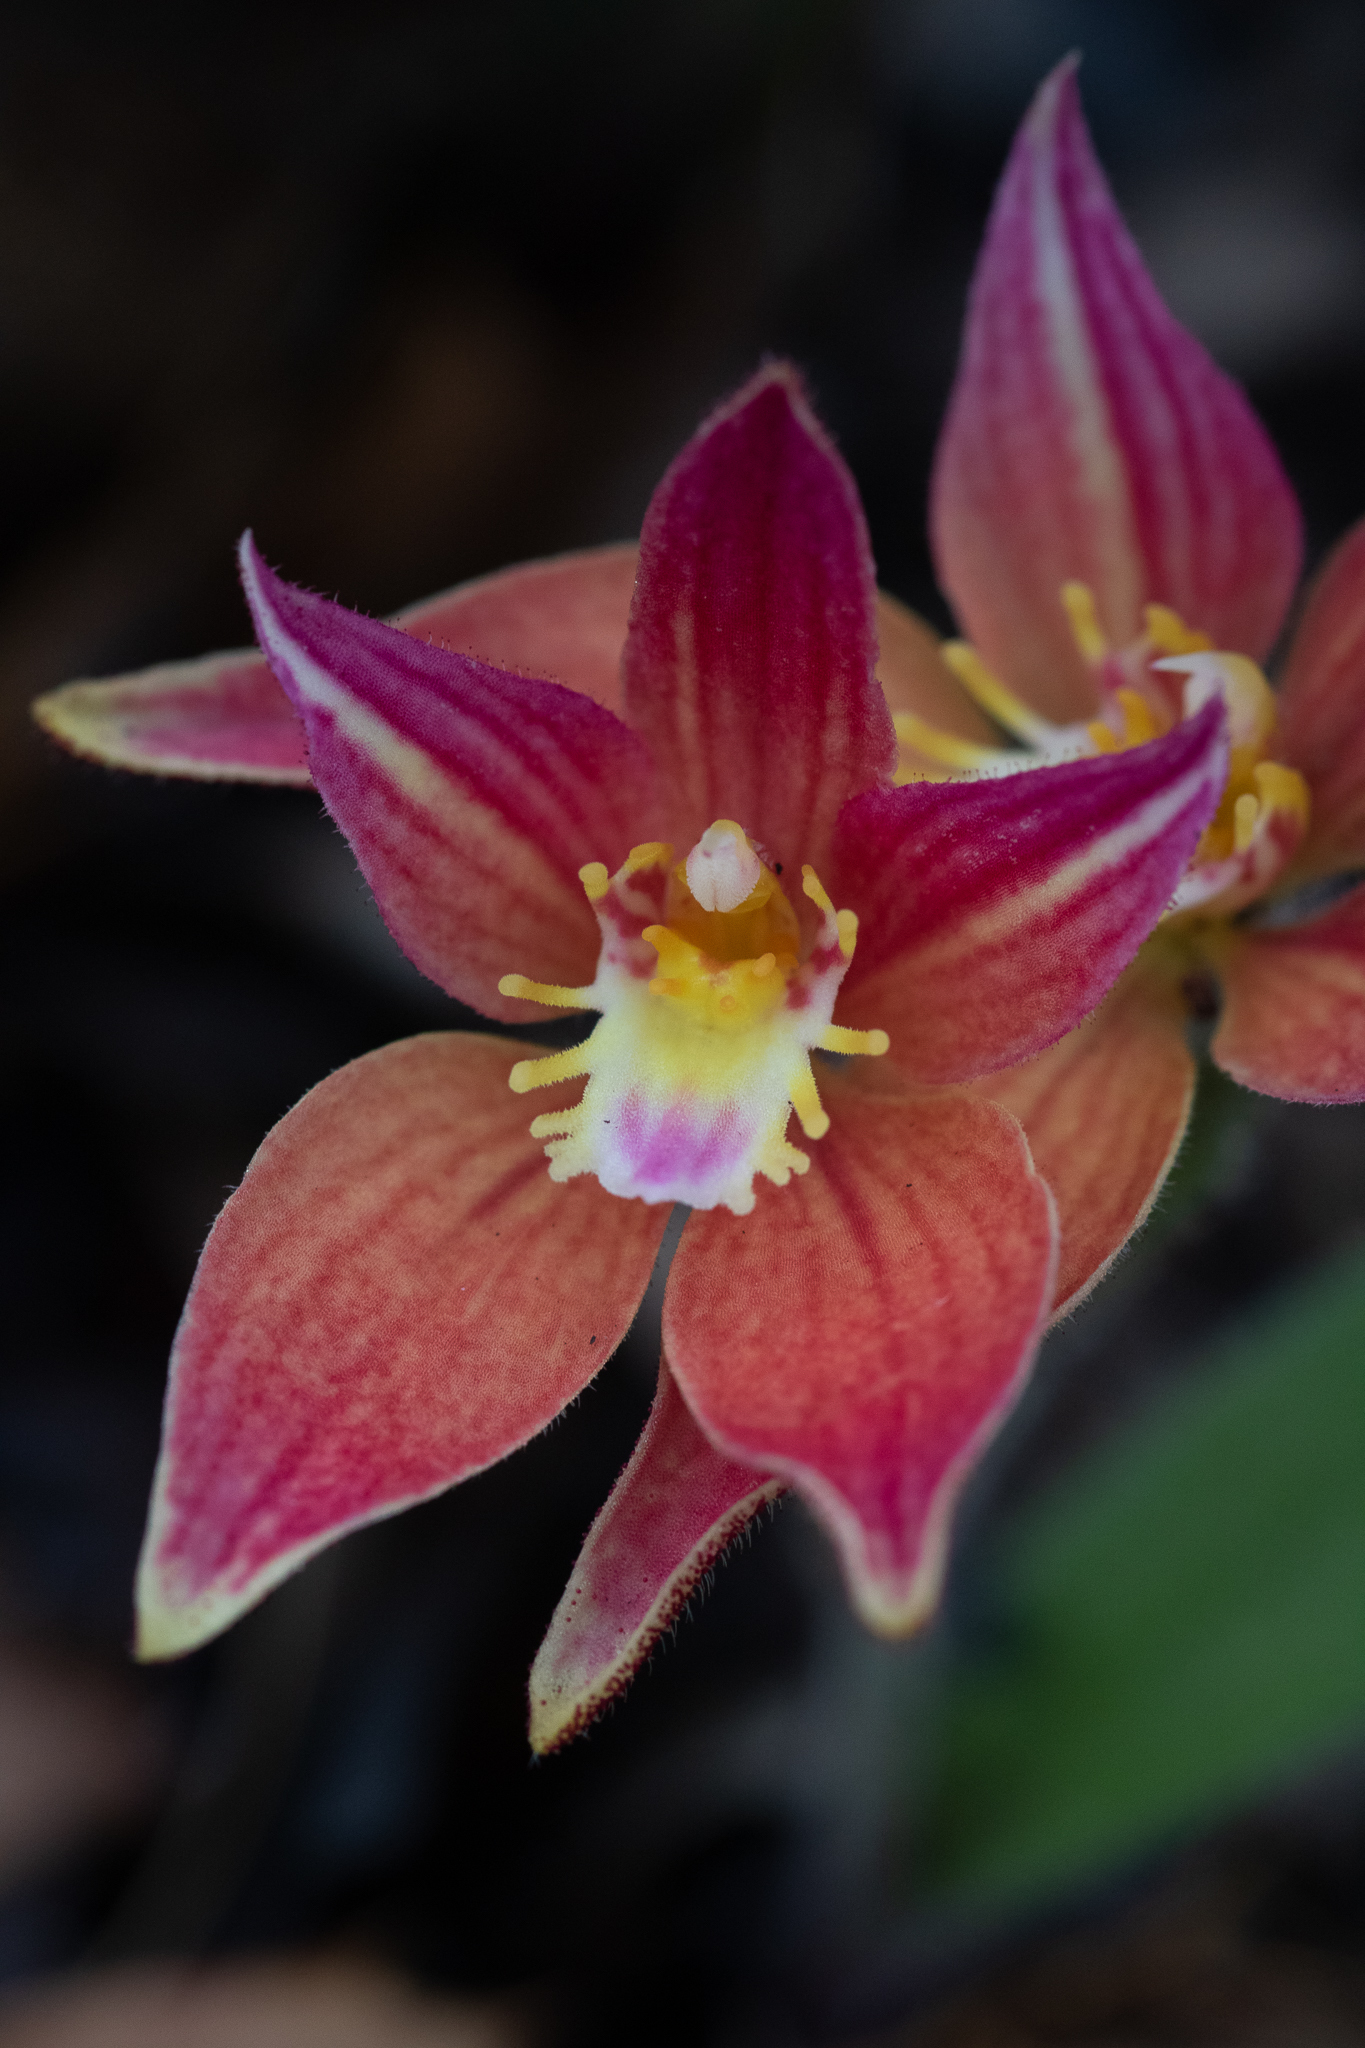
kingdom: Plantae
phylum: Tracheophyta
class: Liliopsida
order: Asparagales
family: Orchidaceae
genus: Caladenia
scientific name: Caladenia spectabilis
